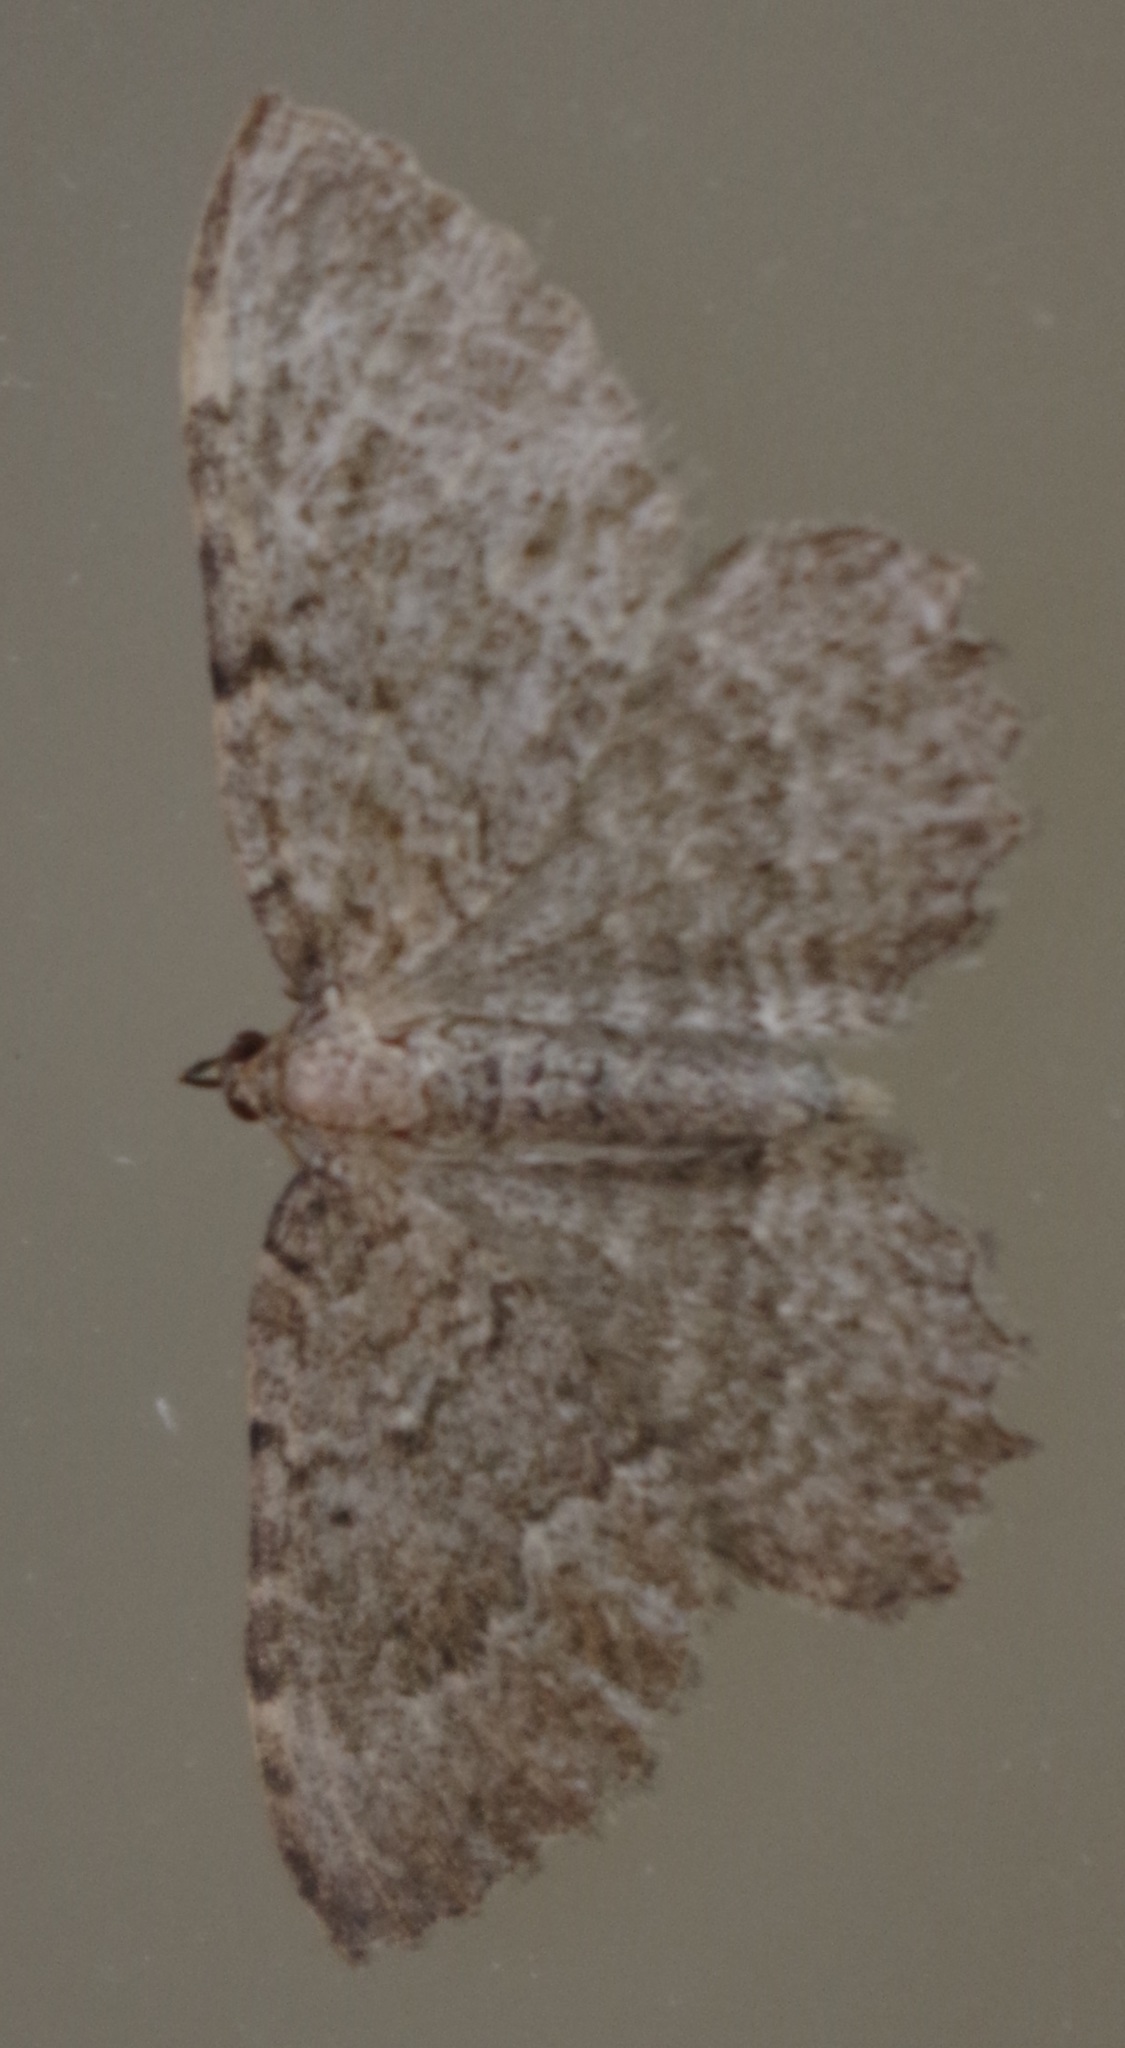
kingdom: Animalia
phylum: Arthropoda
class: Insecta
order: Lepidoptera
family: Geometridae
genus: Philereme
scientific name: Philereme vetulata
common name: Brown scallop
